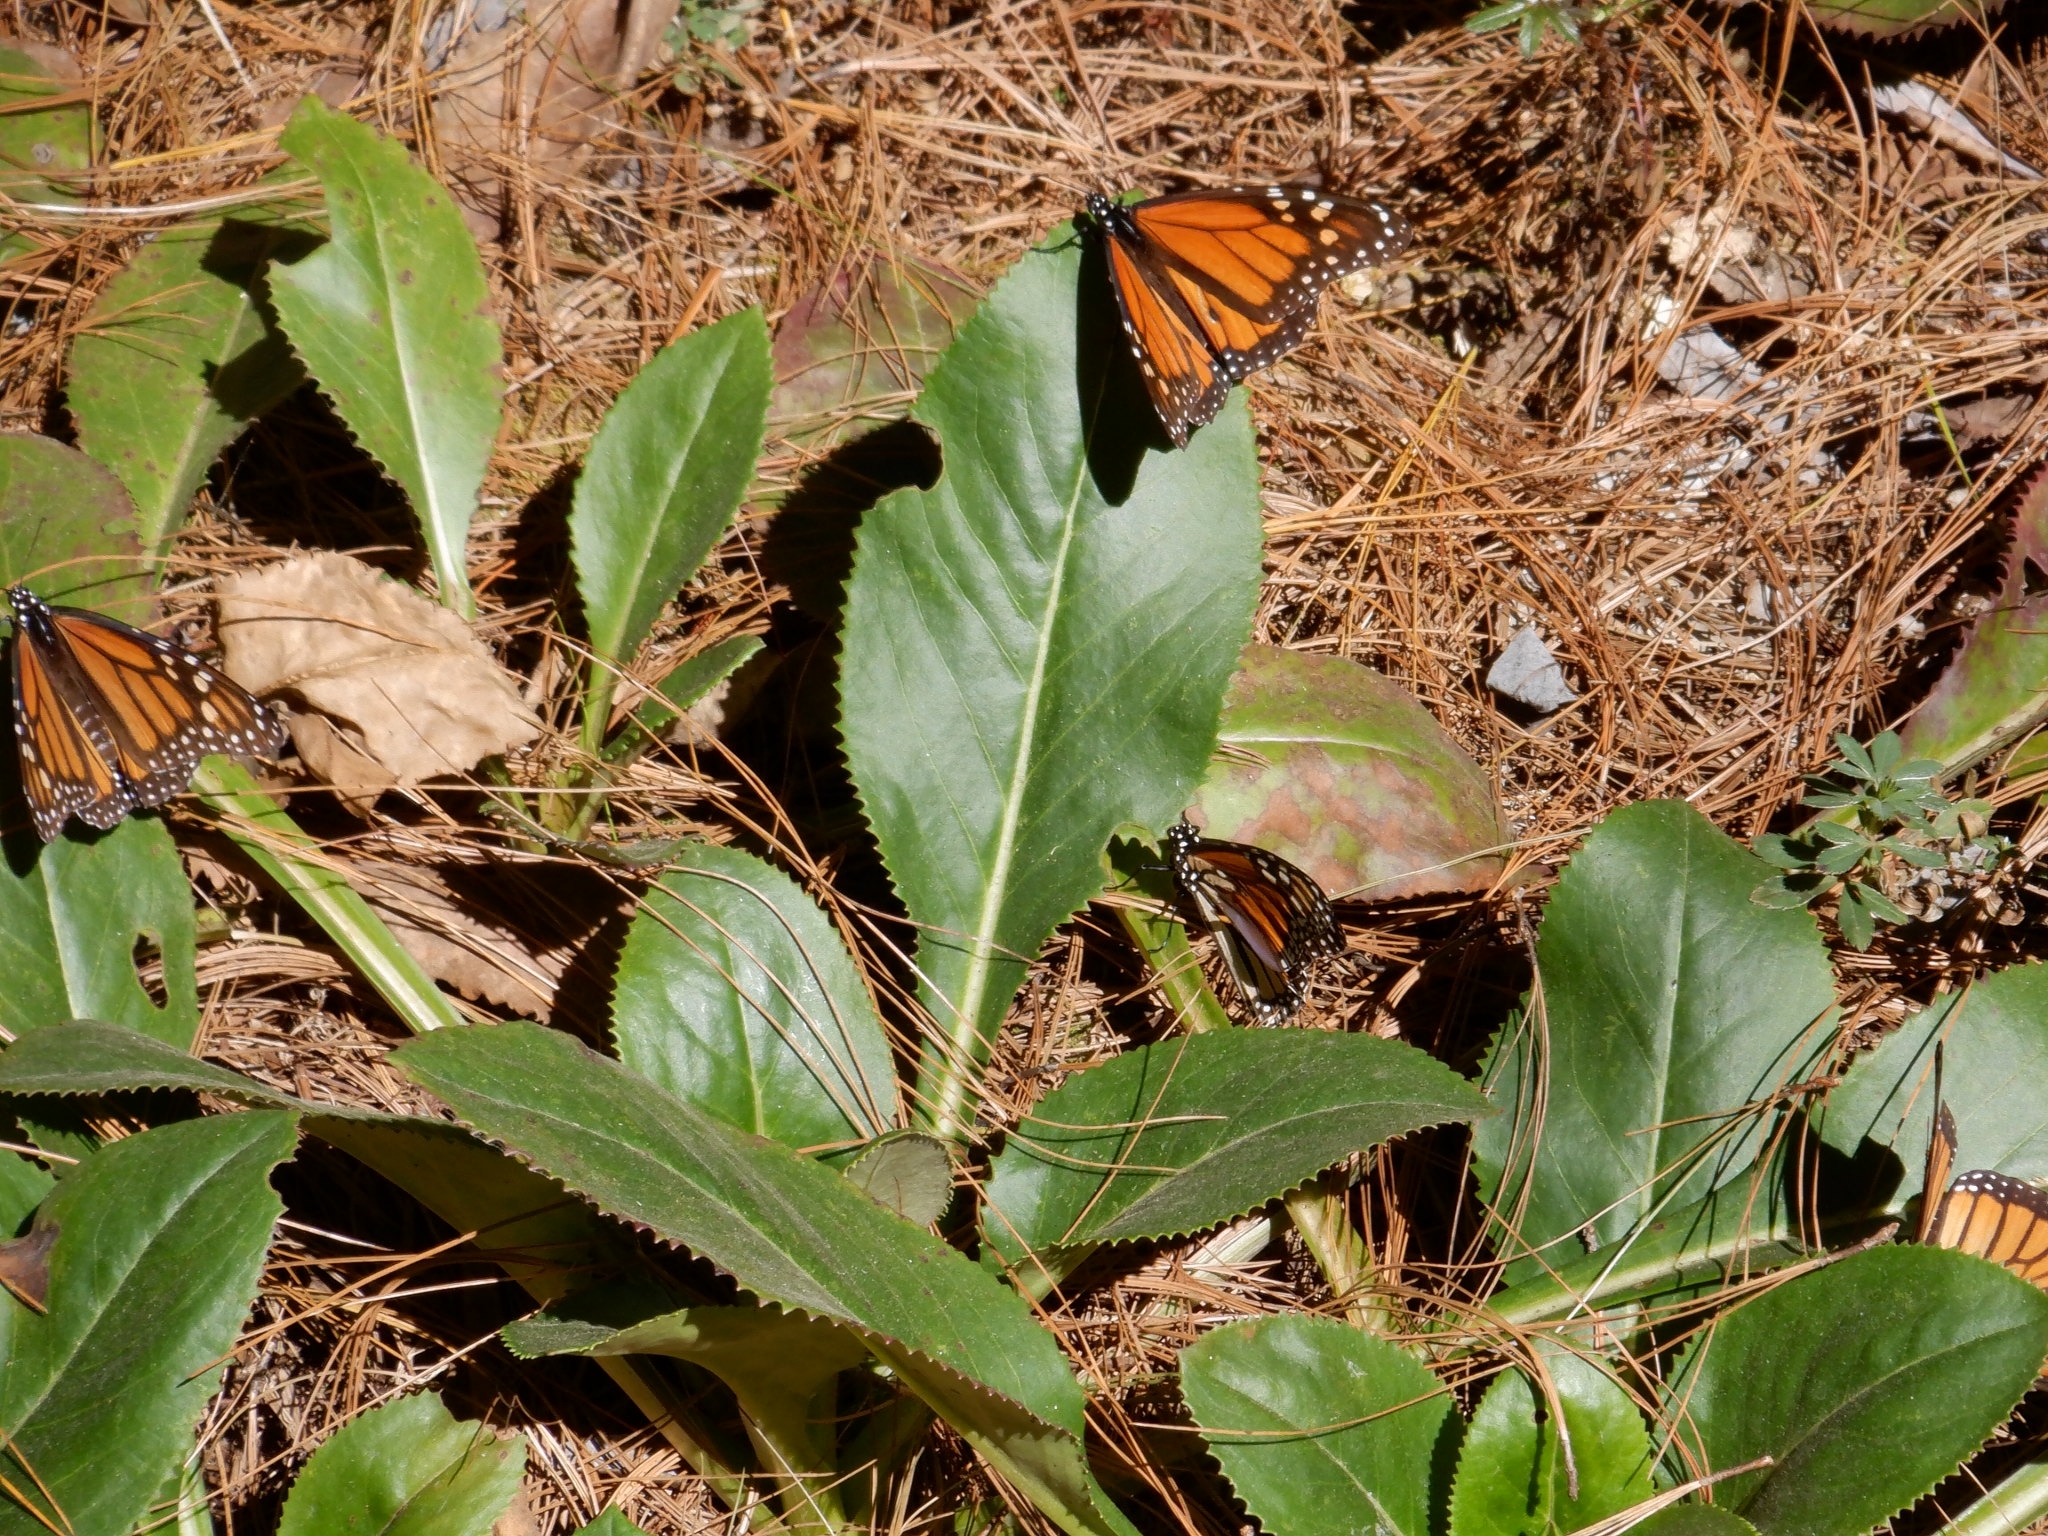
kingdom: Animalia
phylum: Arthropoda
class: Insecta
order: Lepidoptera
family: Nymphalidae
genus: Danaus
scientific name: Danaus plexippus
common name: Monarch
